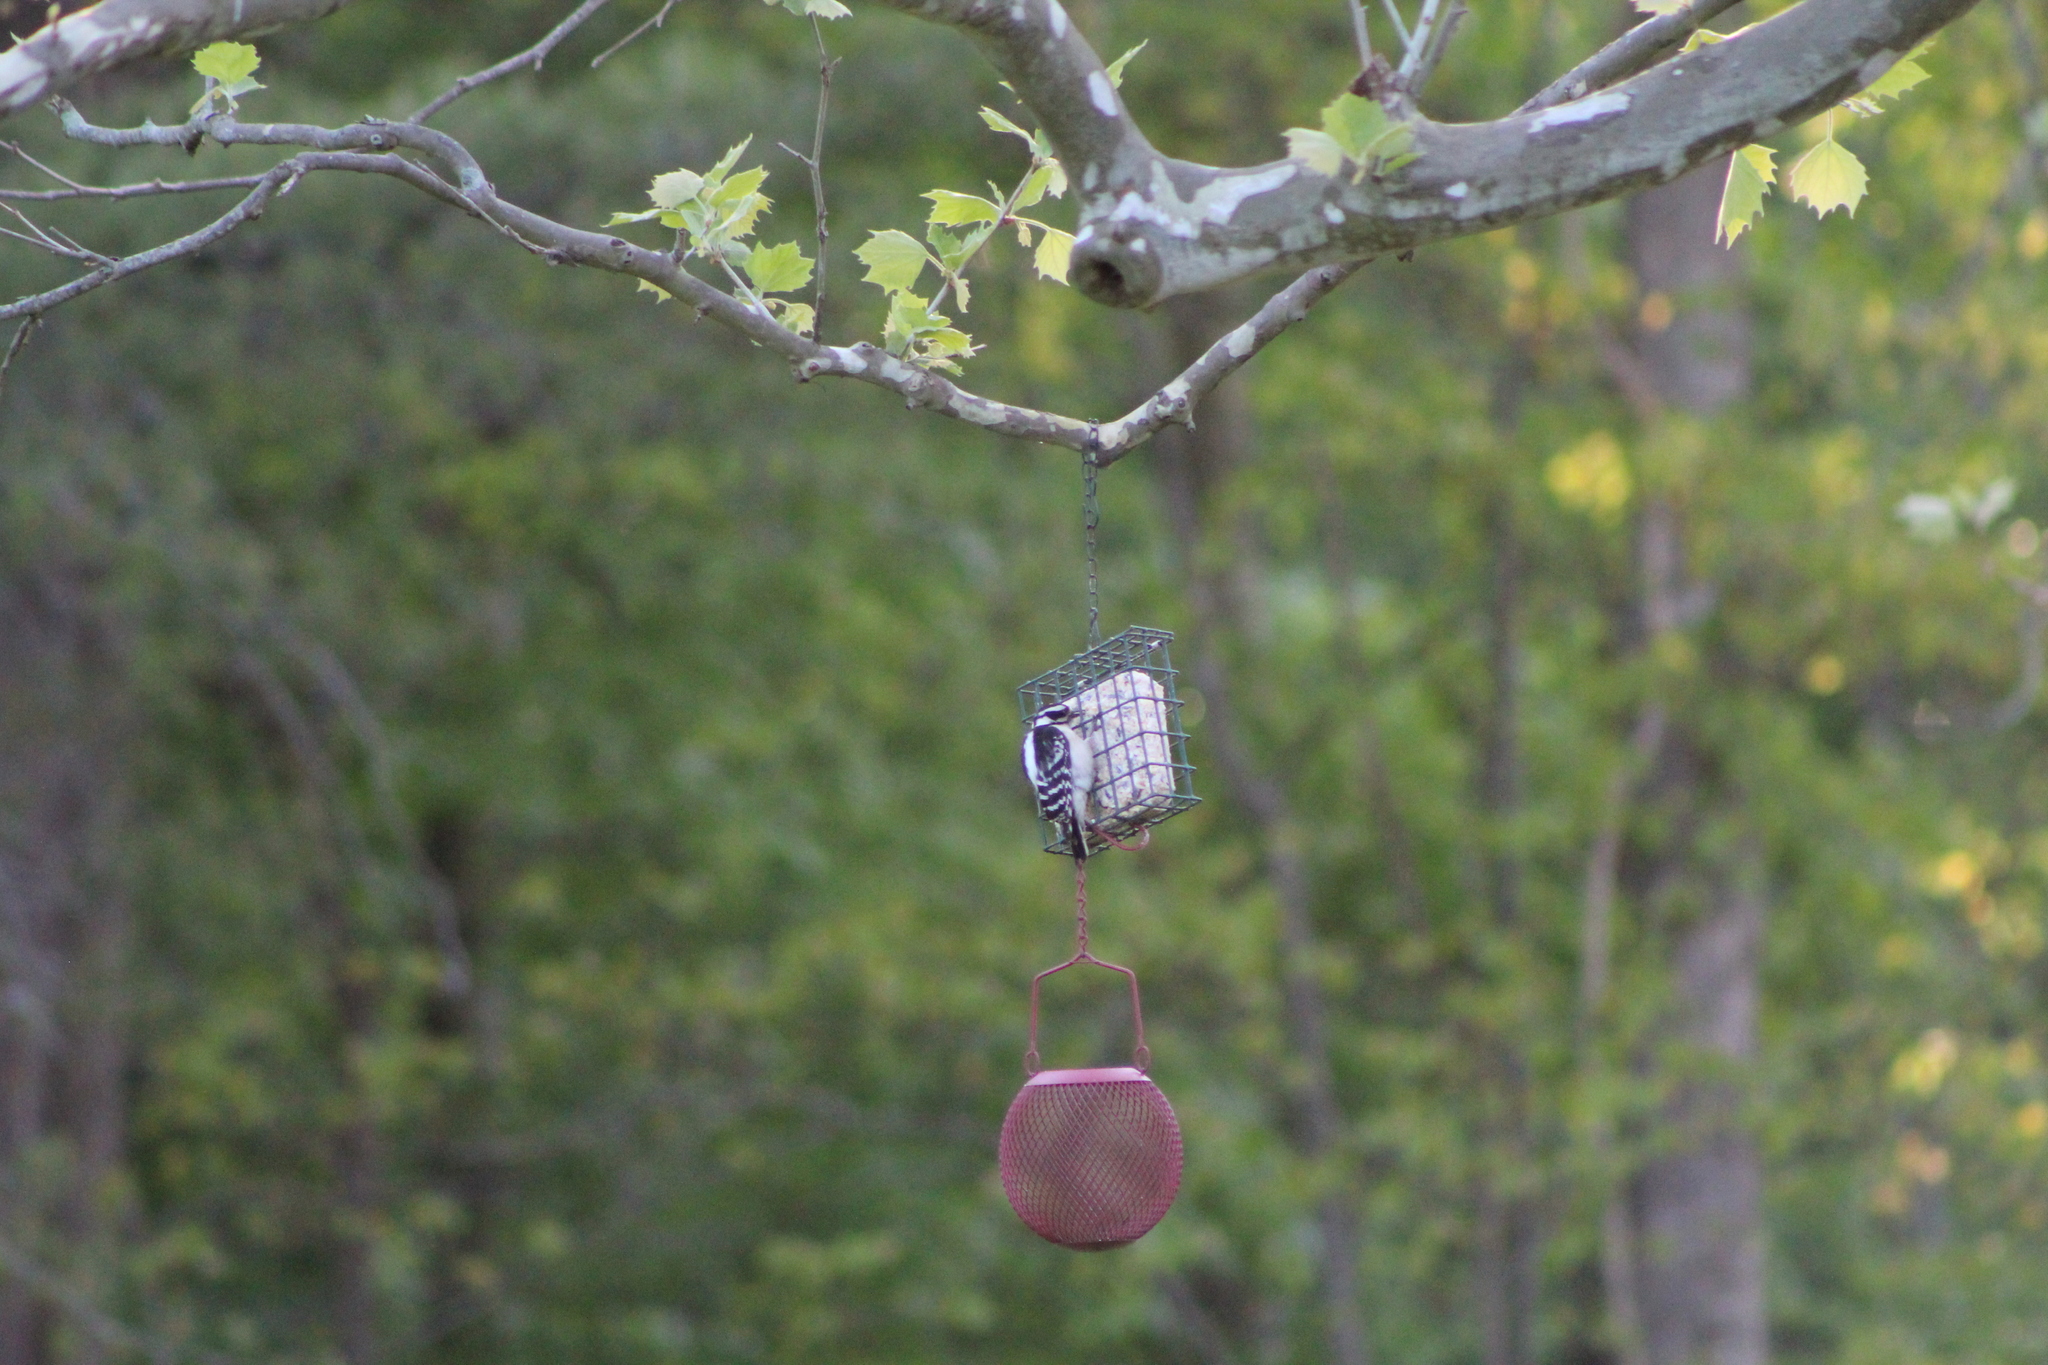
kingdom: Animalia
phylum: Chordata
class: Aves
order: Piciformes
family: Picidae
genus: Dryobates
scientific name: Dryobates pubescens
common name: Downy woodpecker
